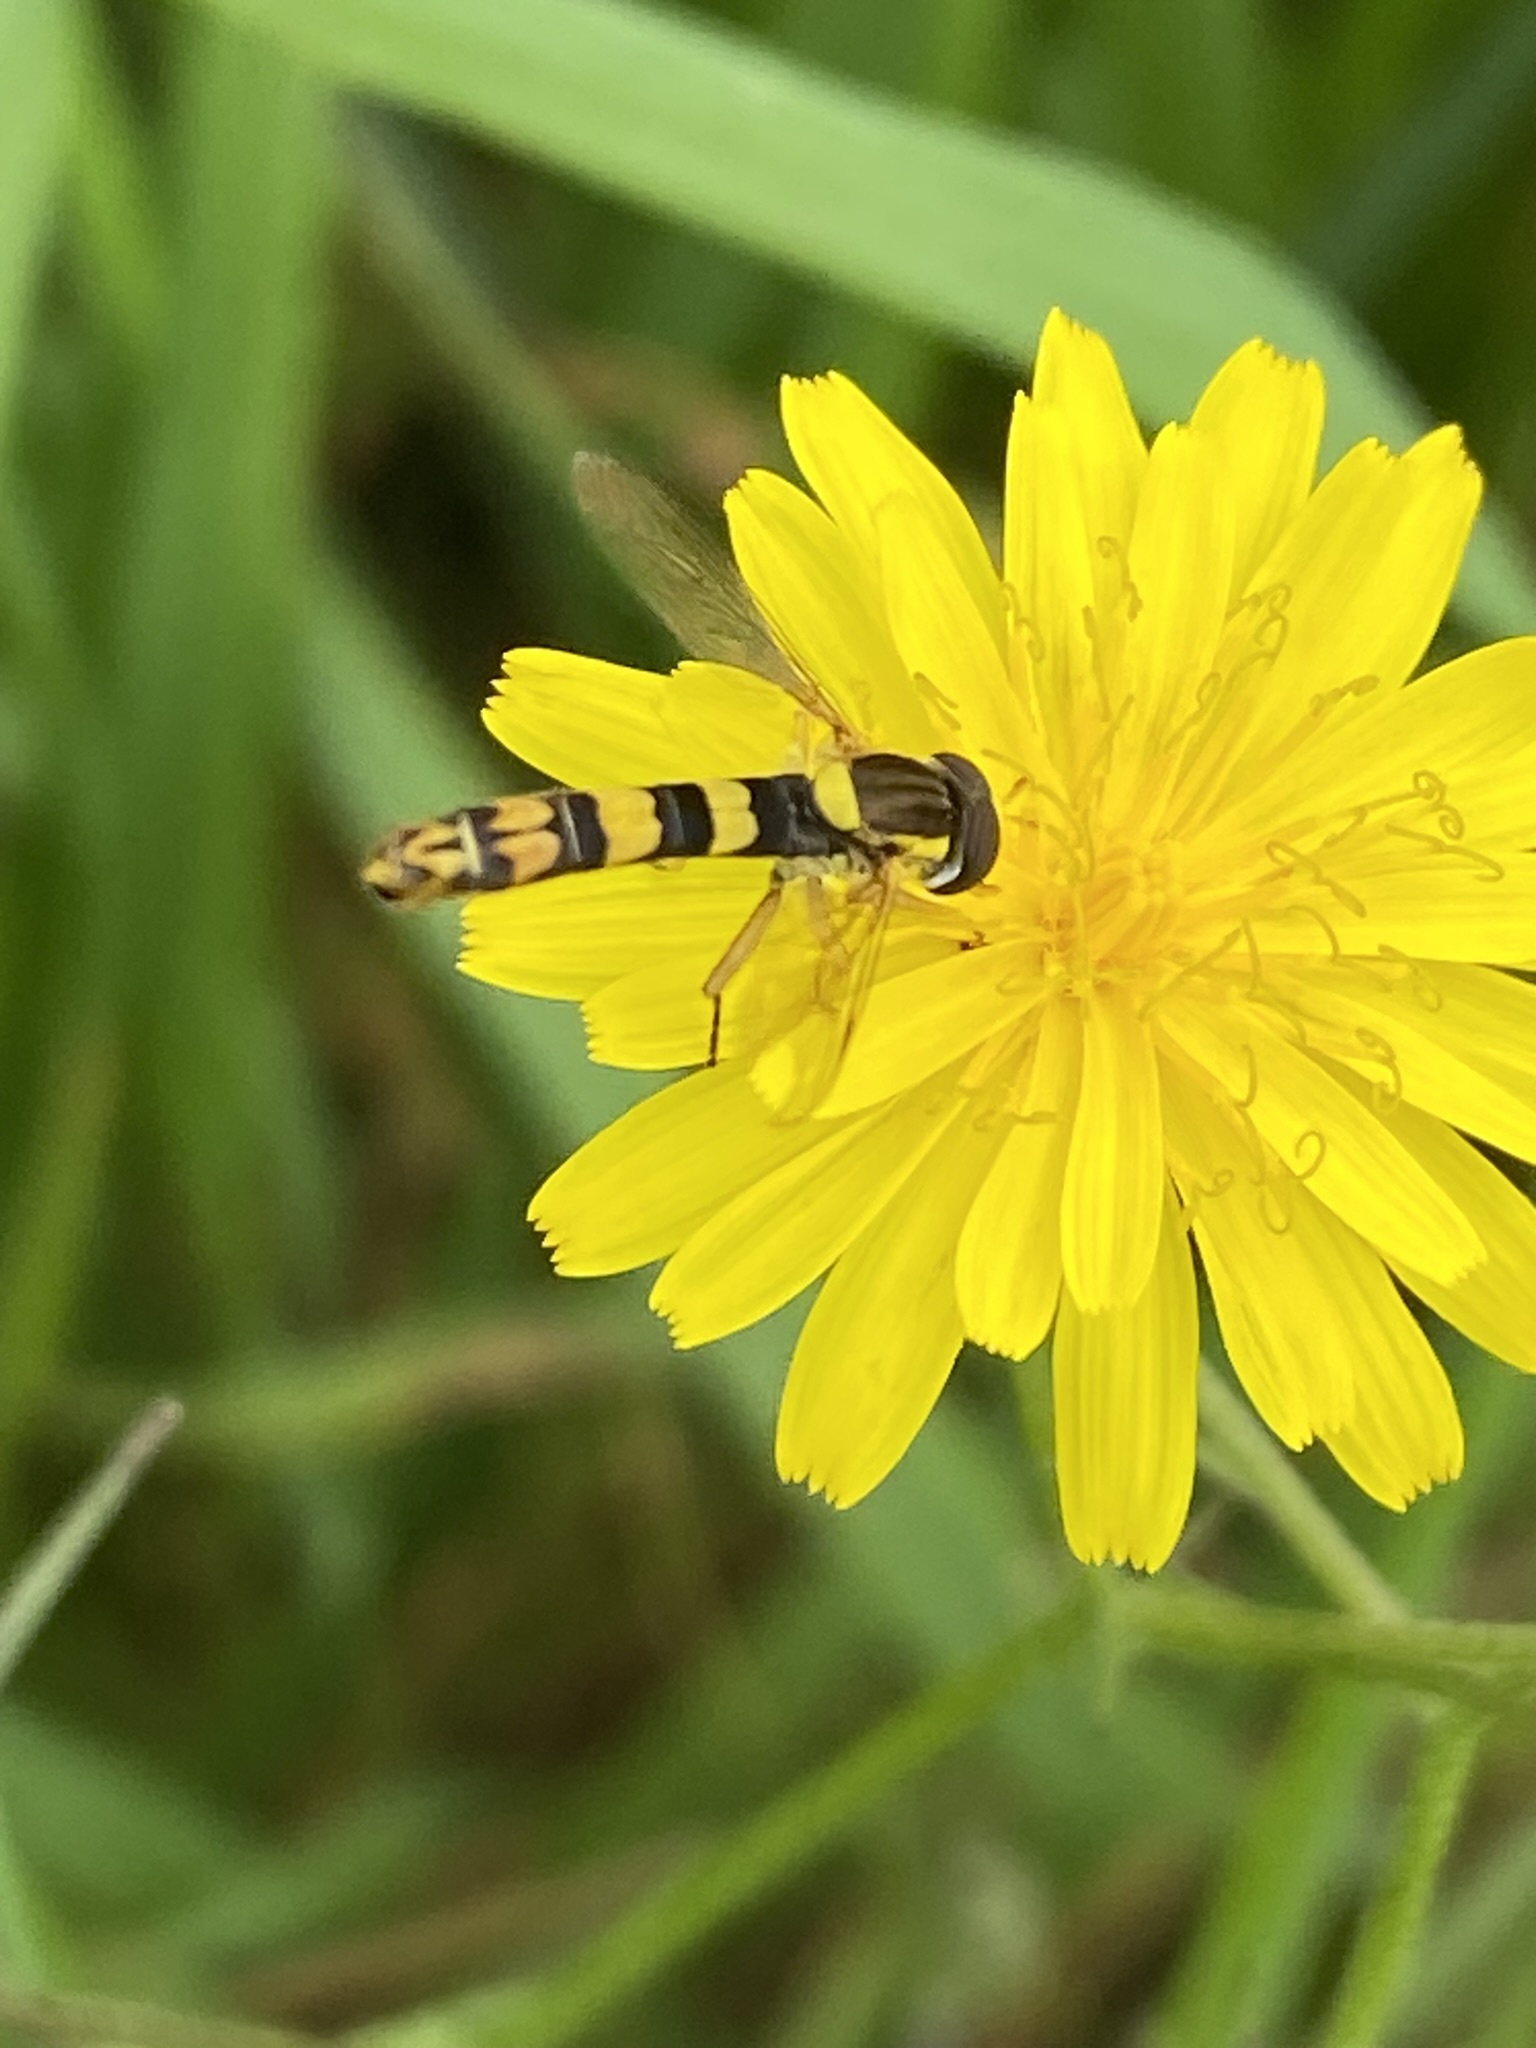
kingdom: Animalia
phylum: Arthropoda
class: Insecta
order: Diptera
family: Syrphidae
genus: Sphaerophoria
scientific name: Sphaerophoria scripta
